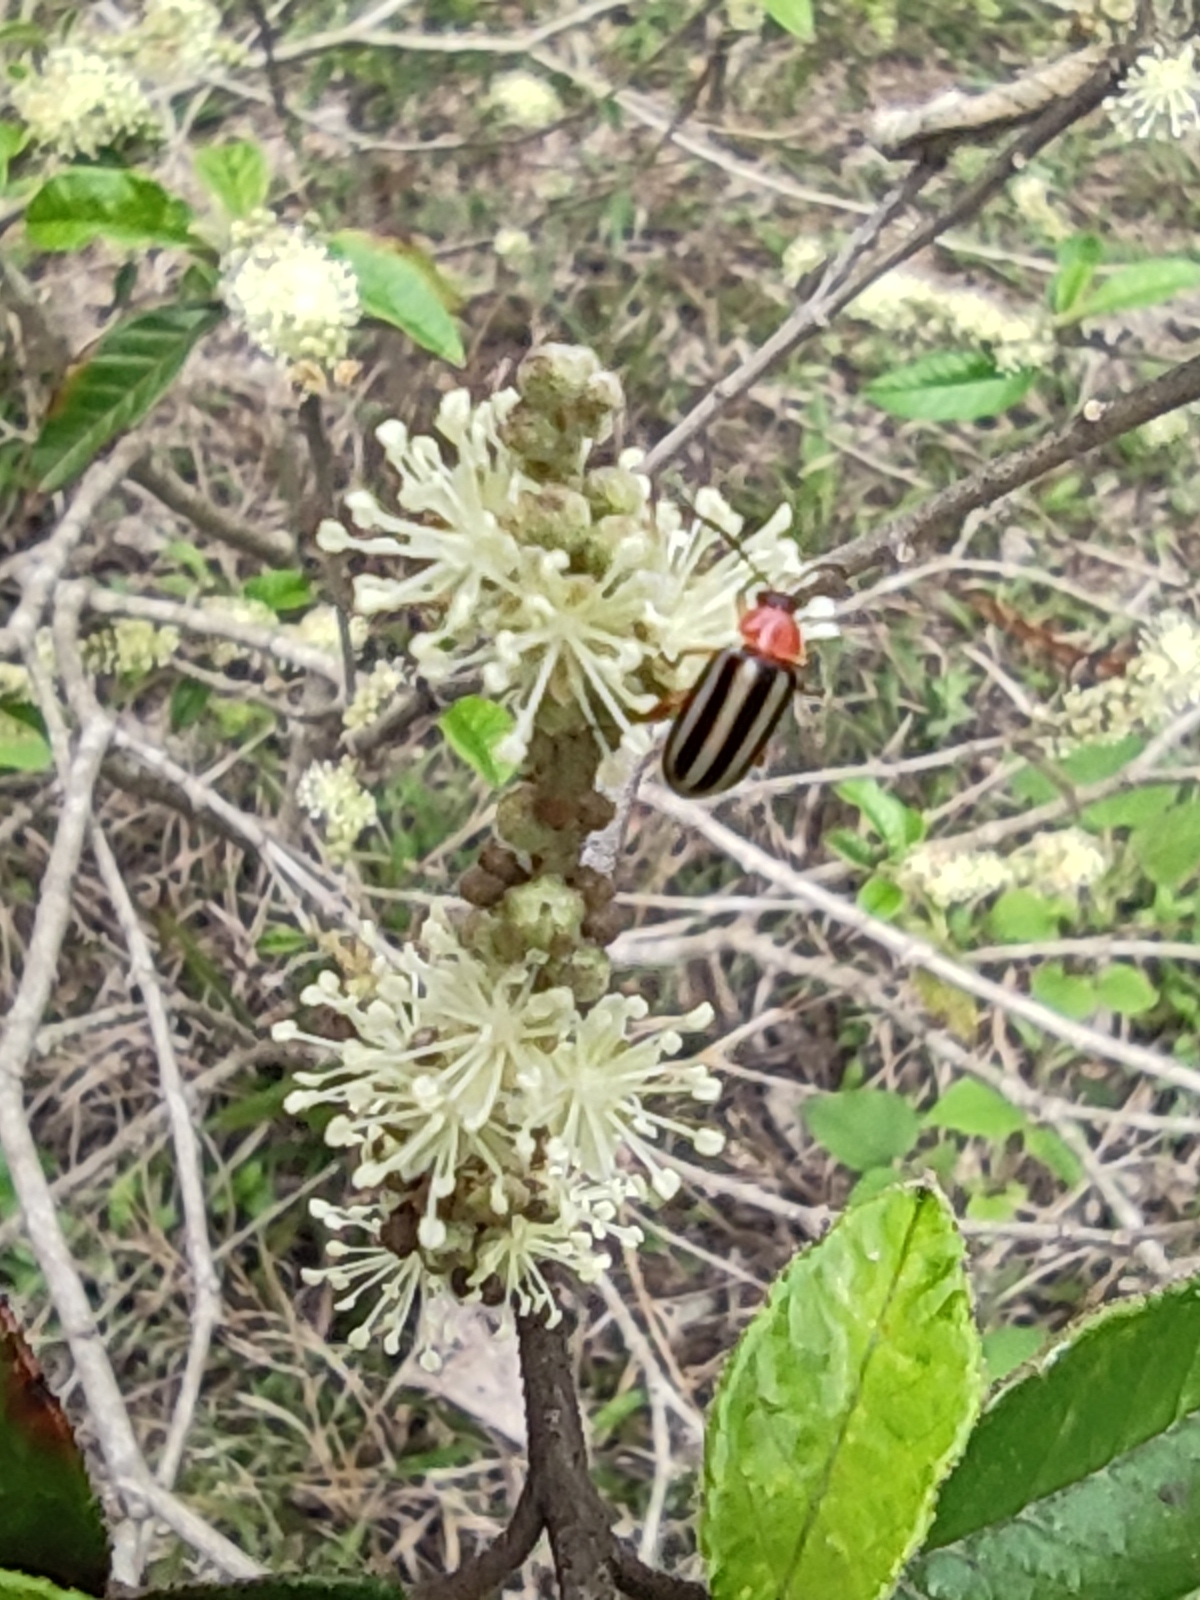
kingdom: Animalia
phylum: Arthropoda
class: Insecta
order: Coleoptera
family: Chrysomelidae
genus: Disonycha
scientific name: Disonycha glabrata
